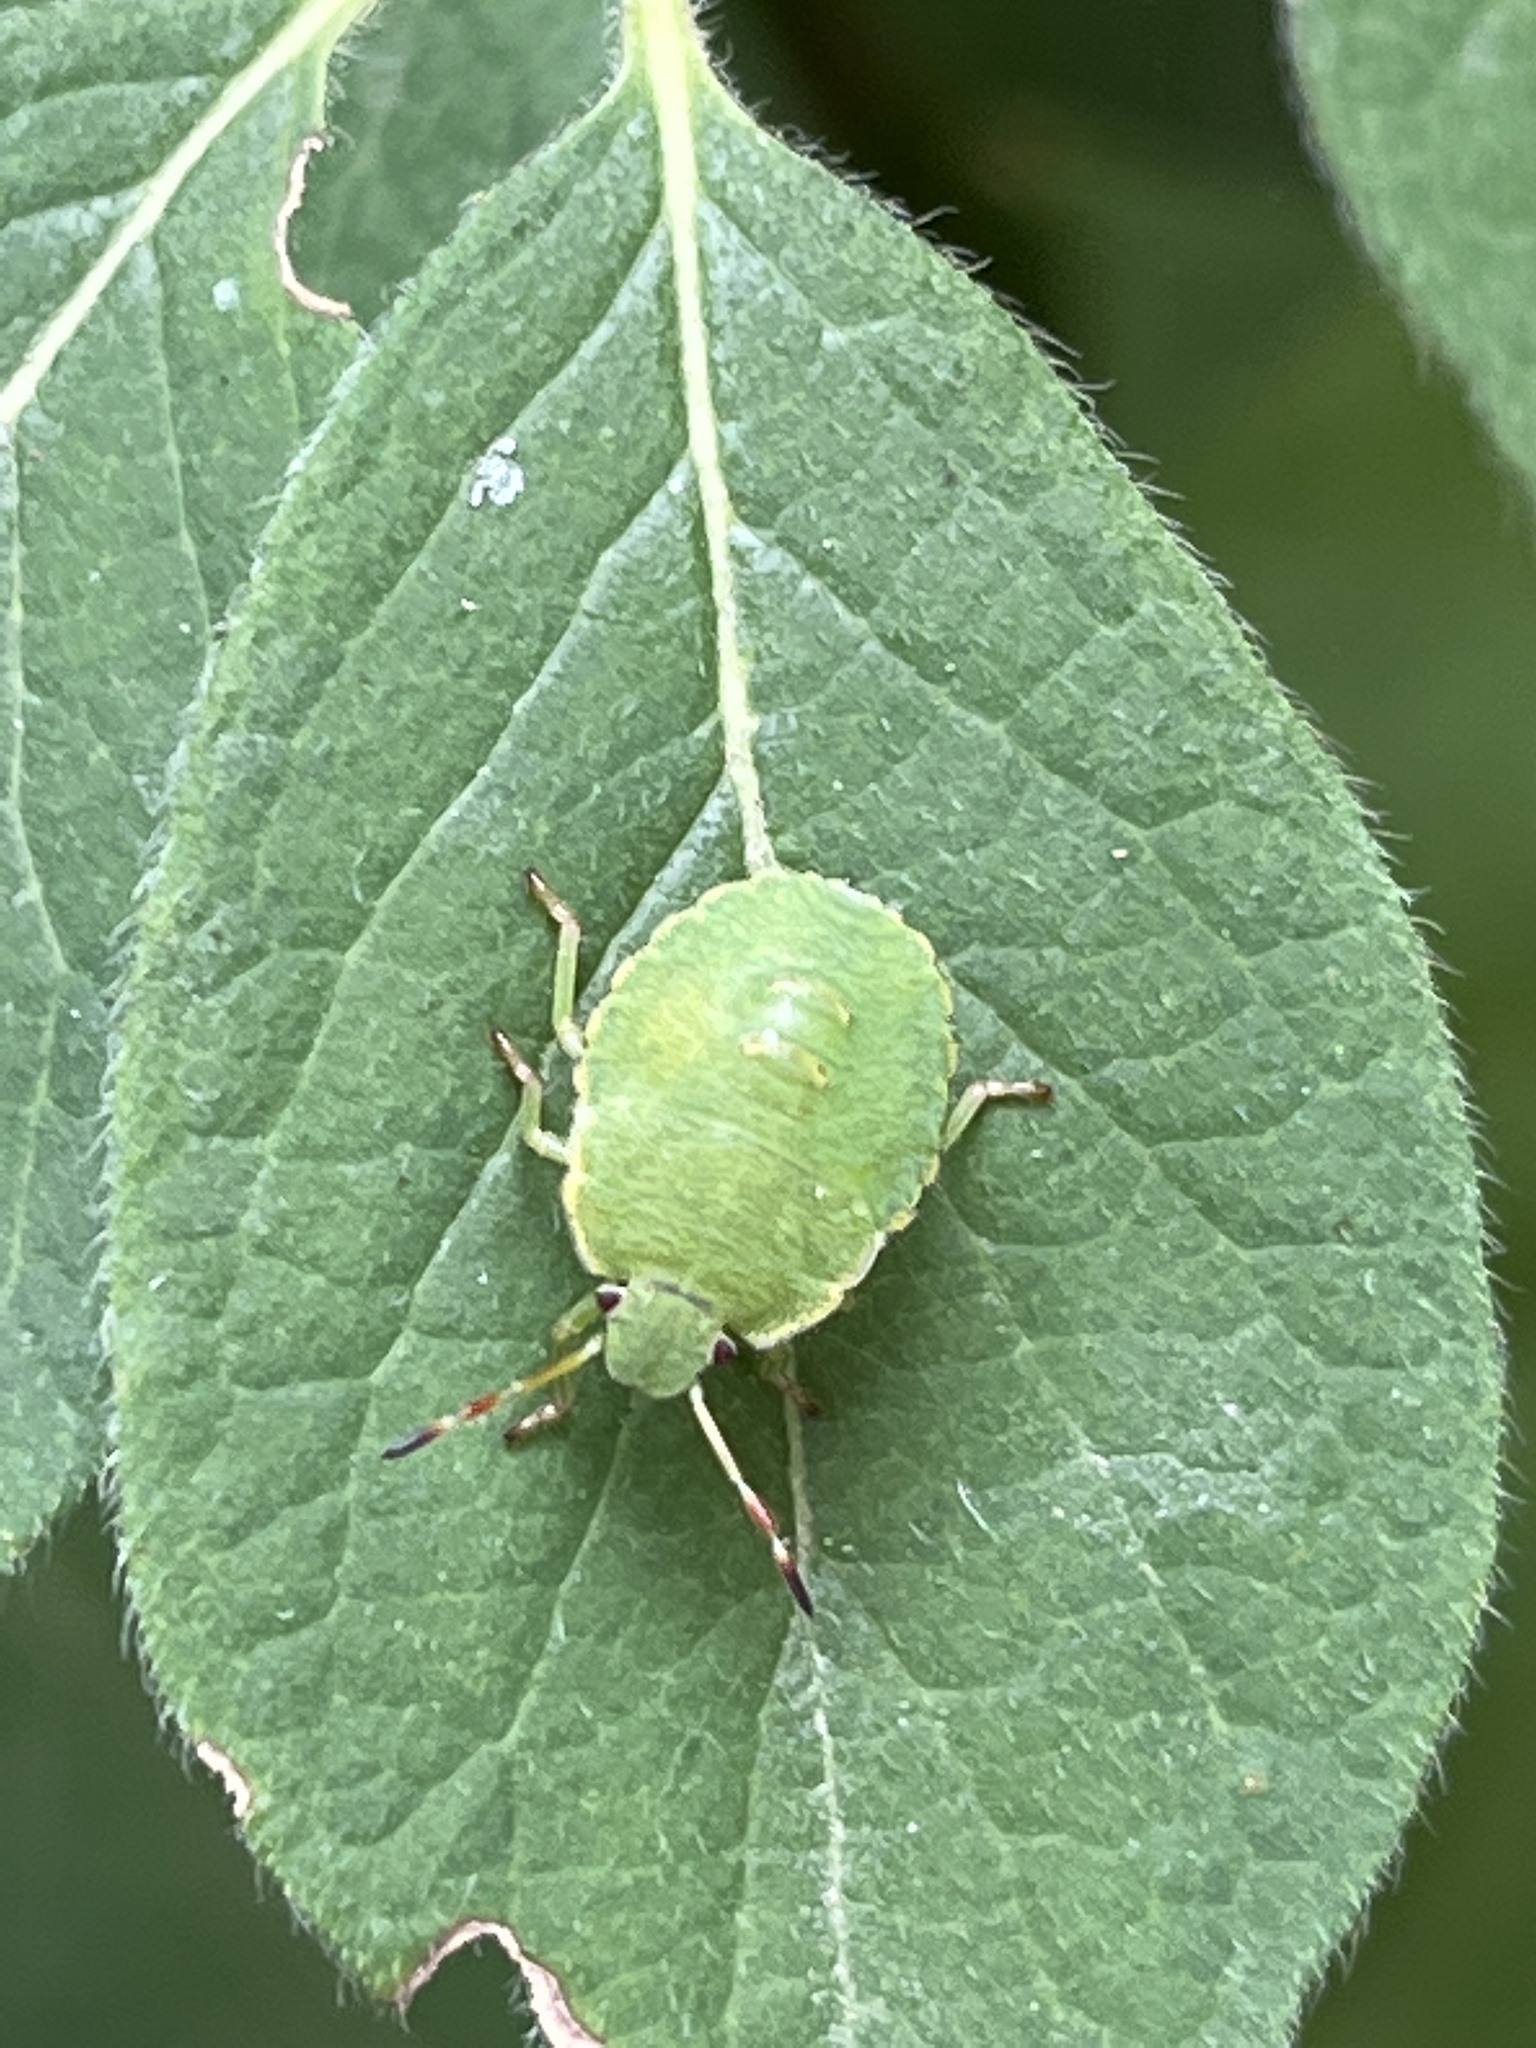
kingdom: Animalia
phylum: Arthropoda
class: Insecta
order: Hemiptera
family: Pentatomidae
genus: Palomena
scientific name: Palomena prasina
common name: Green shieldbug
